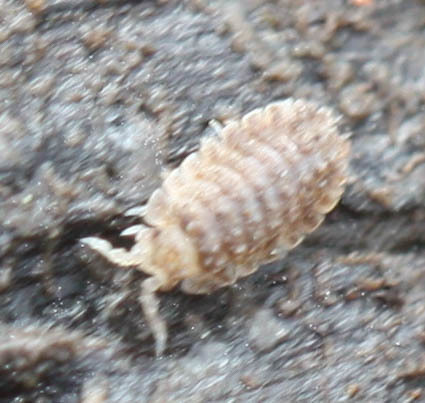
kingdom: Animalia
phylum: Arthropoda
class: Malacostraca
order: Isopoda
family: Detonidae
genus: Armadilloniscus
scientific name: Armadilloniscus coronacapitalis
